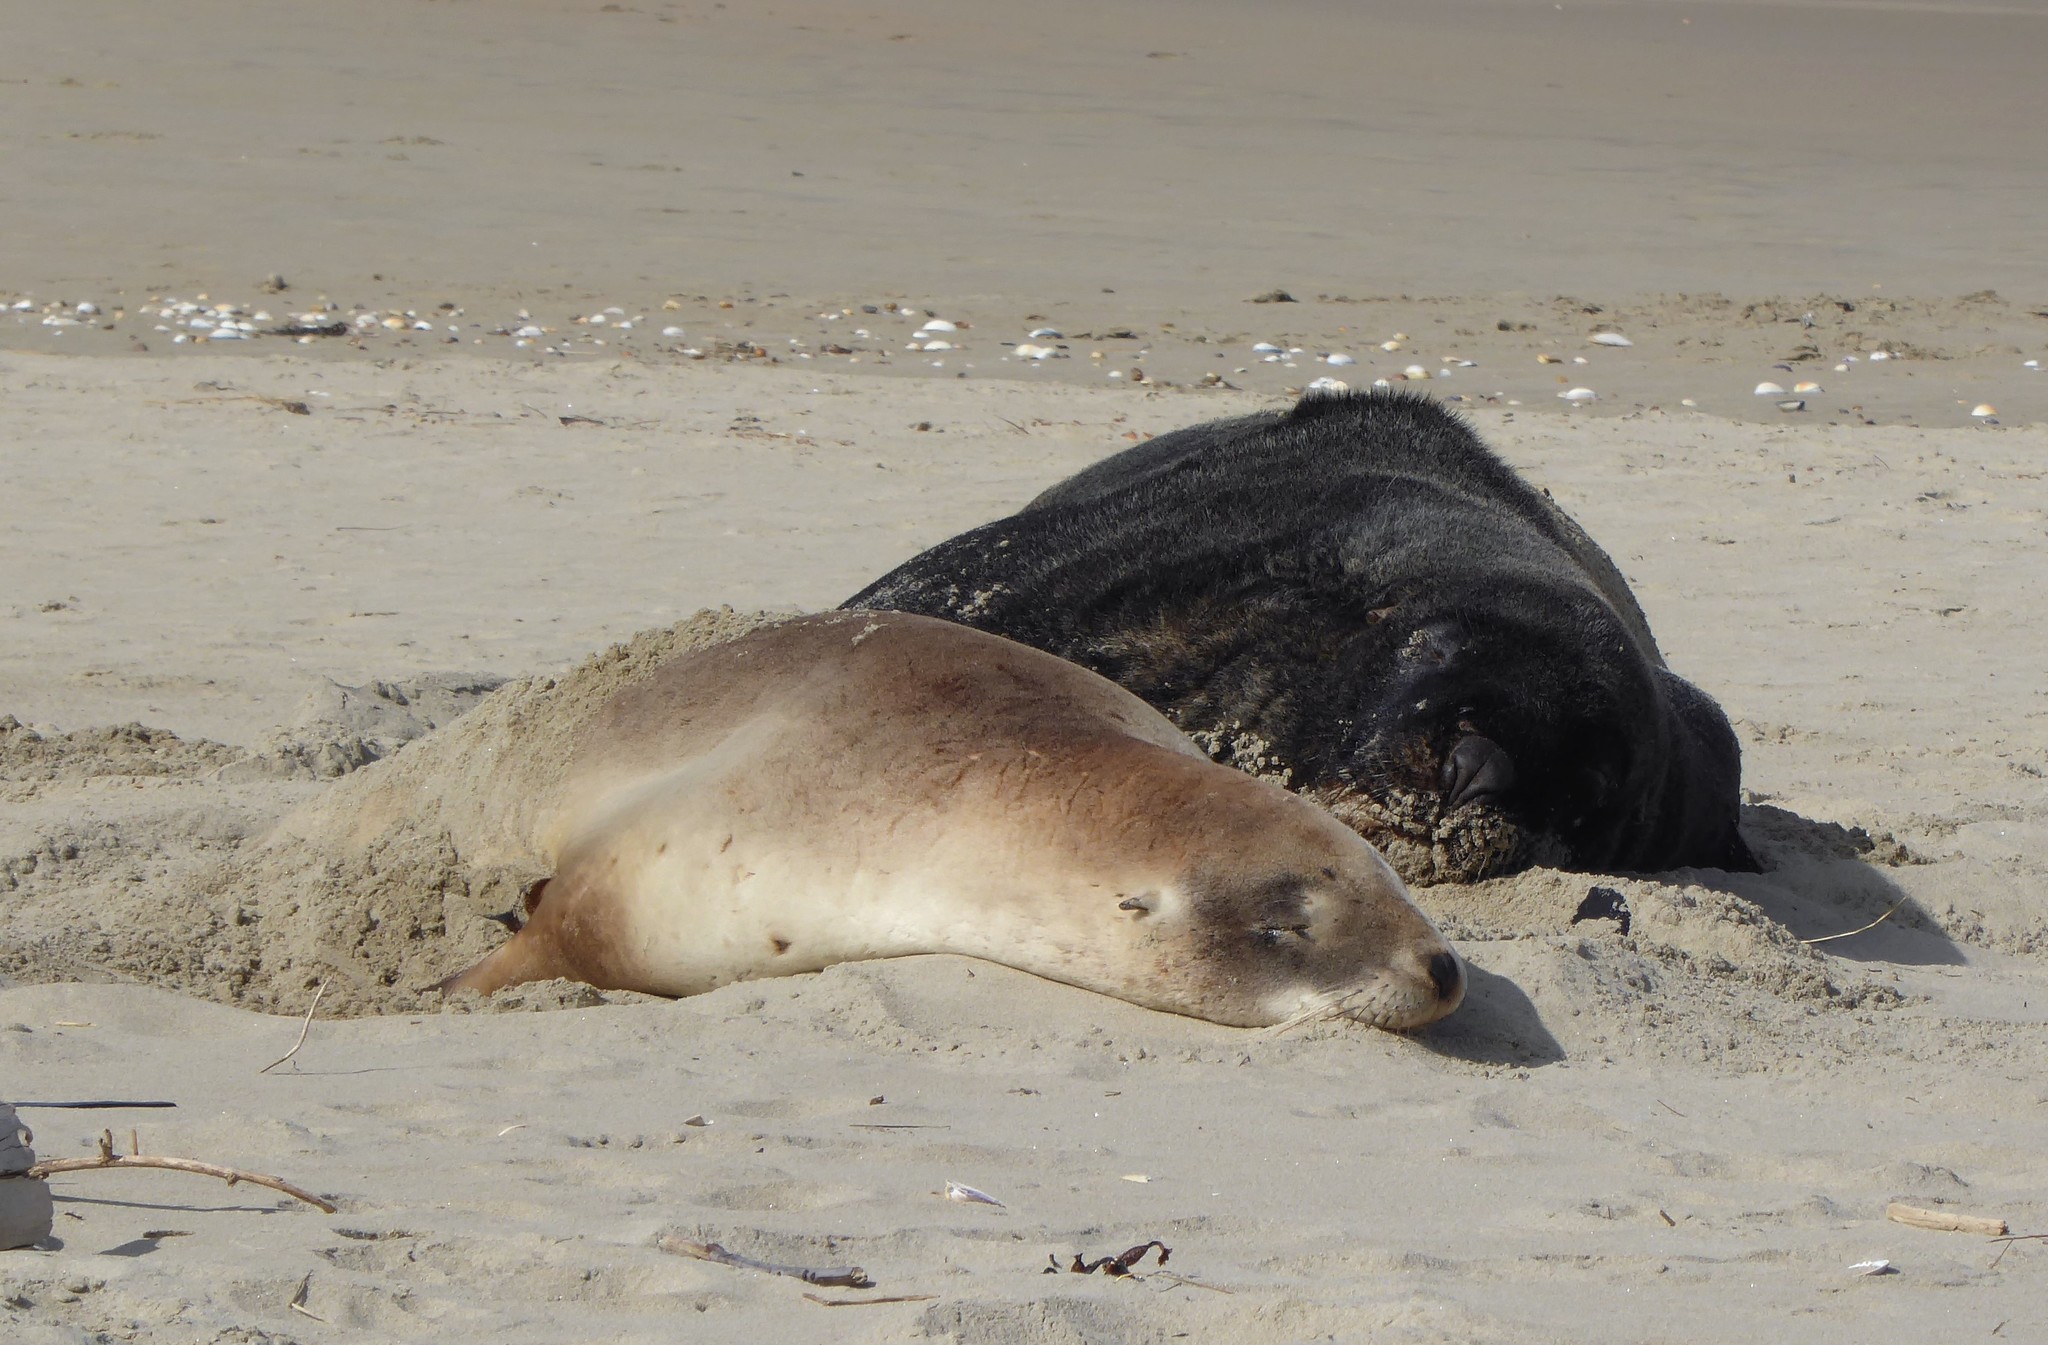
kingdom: Animalia
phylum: Chordata
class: Mammalia
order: Carnivora
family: Otariidae
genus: Phocarctos
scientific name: Phocarctos hookeri
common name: New zealand sea lion
